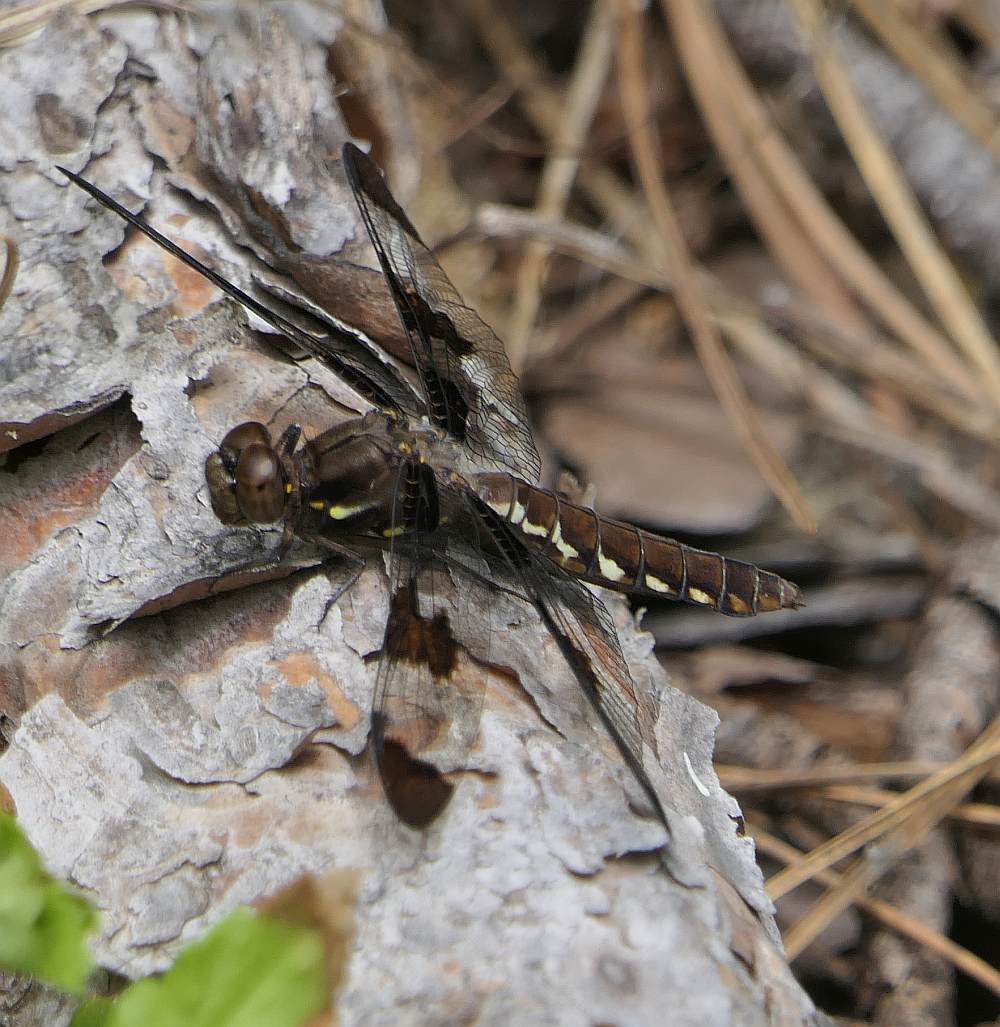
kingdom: Animalia
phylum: Arthropoda
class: Insecta
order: Odonata
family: Libellulidae
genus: Plathemis
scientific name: Plathemis lydia
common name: Common whitetail
